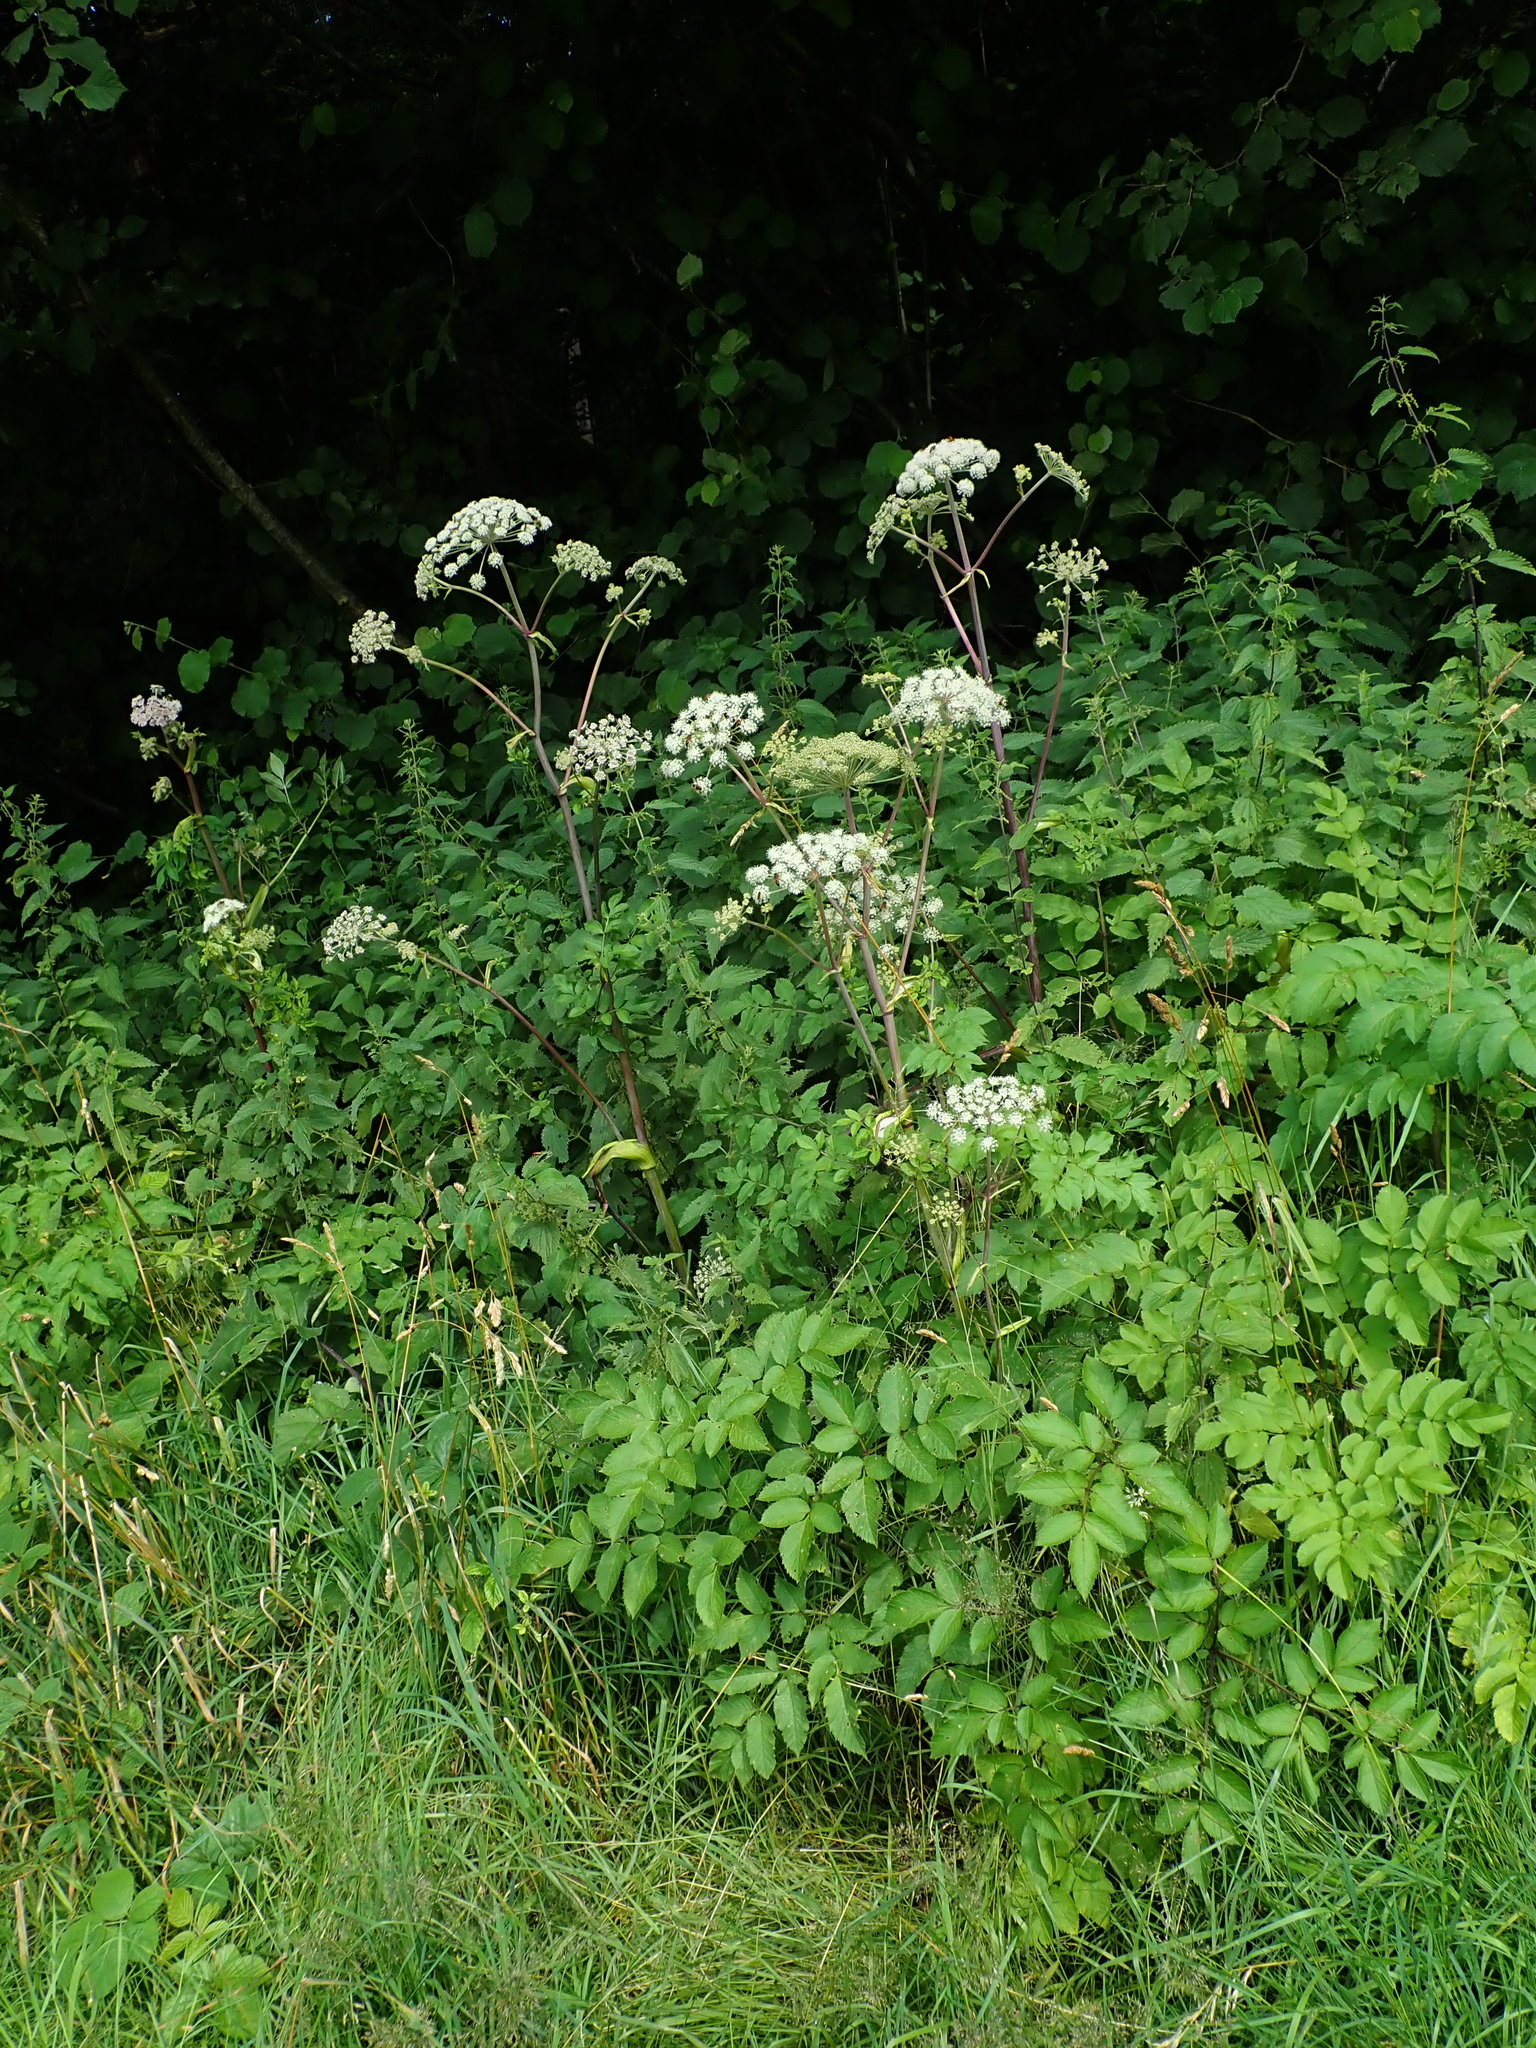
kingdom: Plantae
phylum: Tracheophyta
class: Magnoliopsida
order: Apiales
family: Apiaceae
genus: Angelica
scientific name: Angelica sylvestris
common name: Wild angelica
